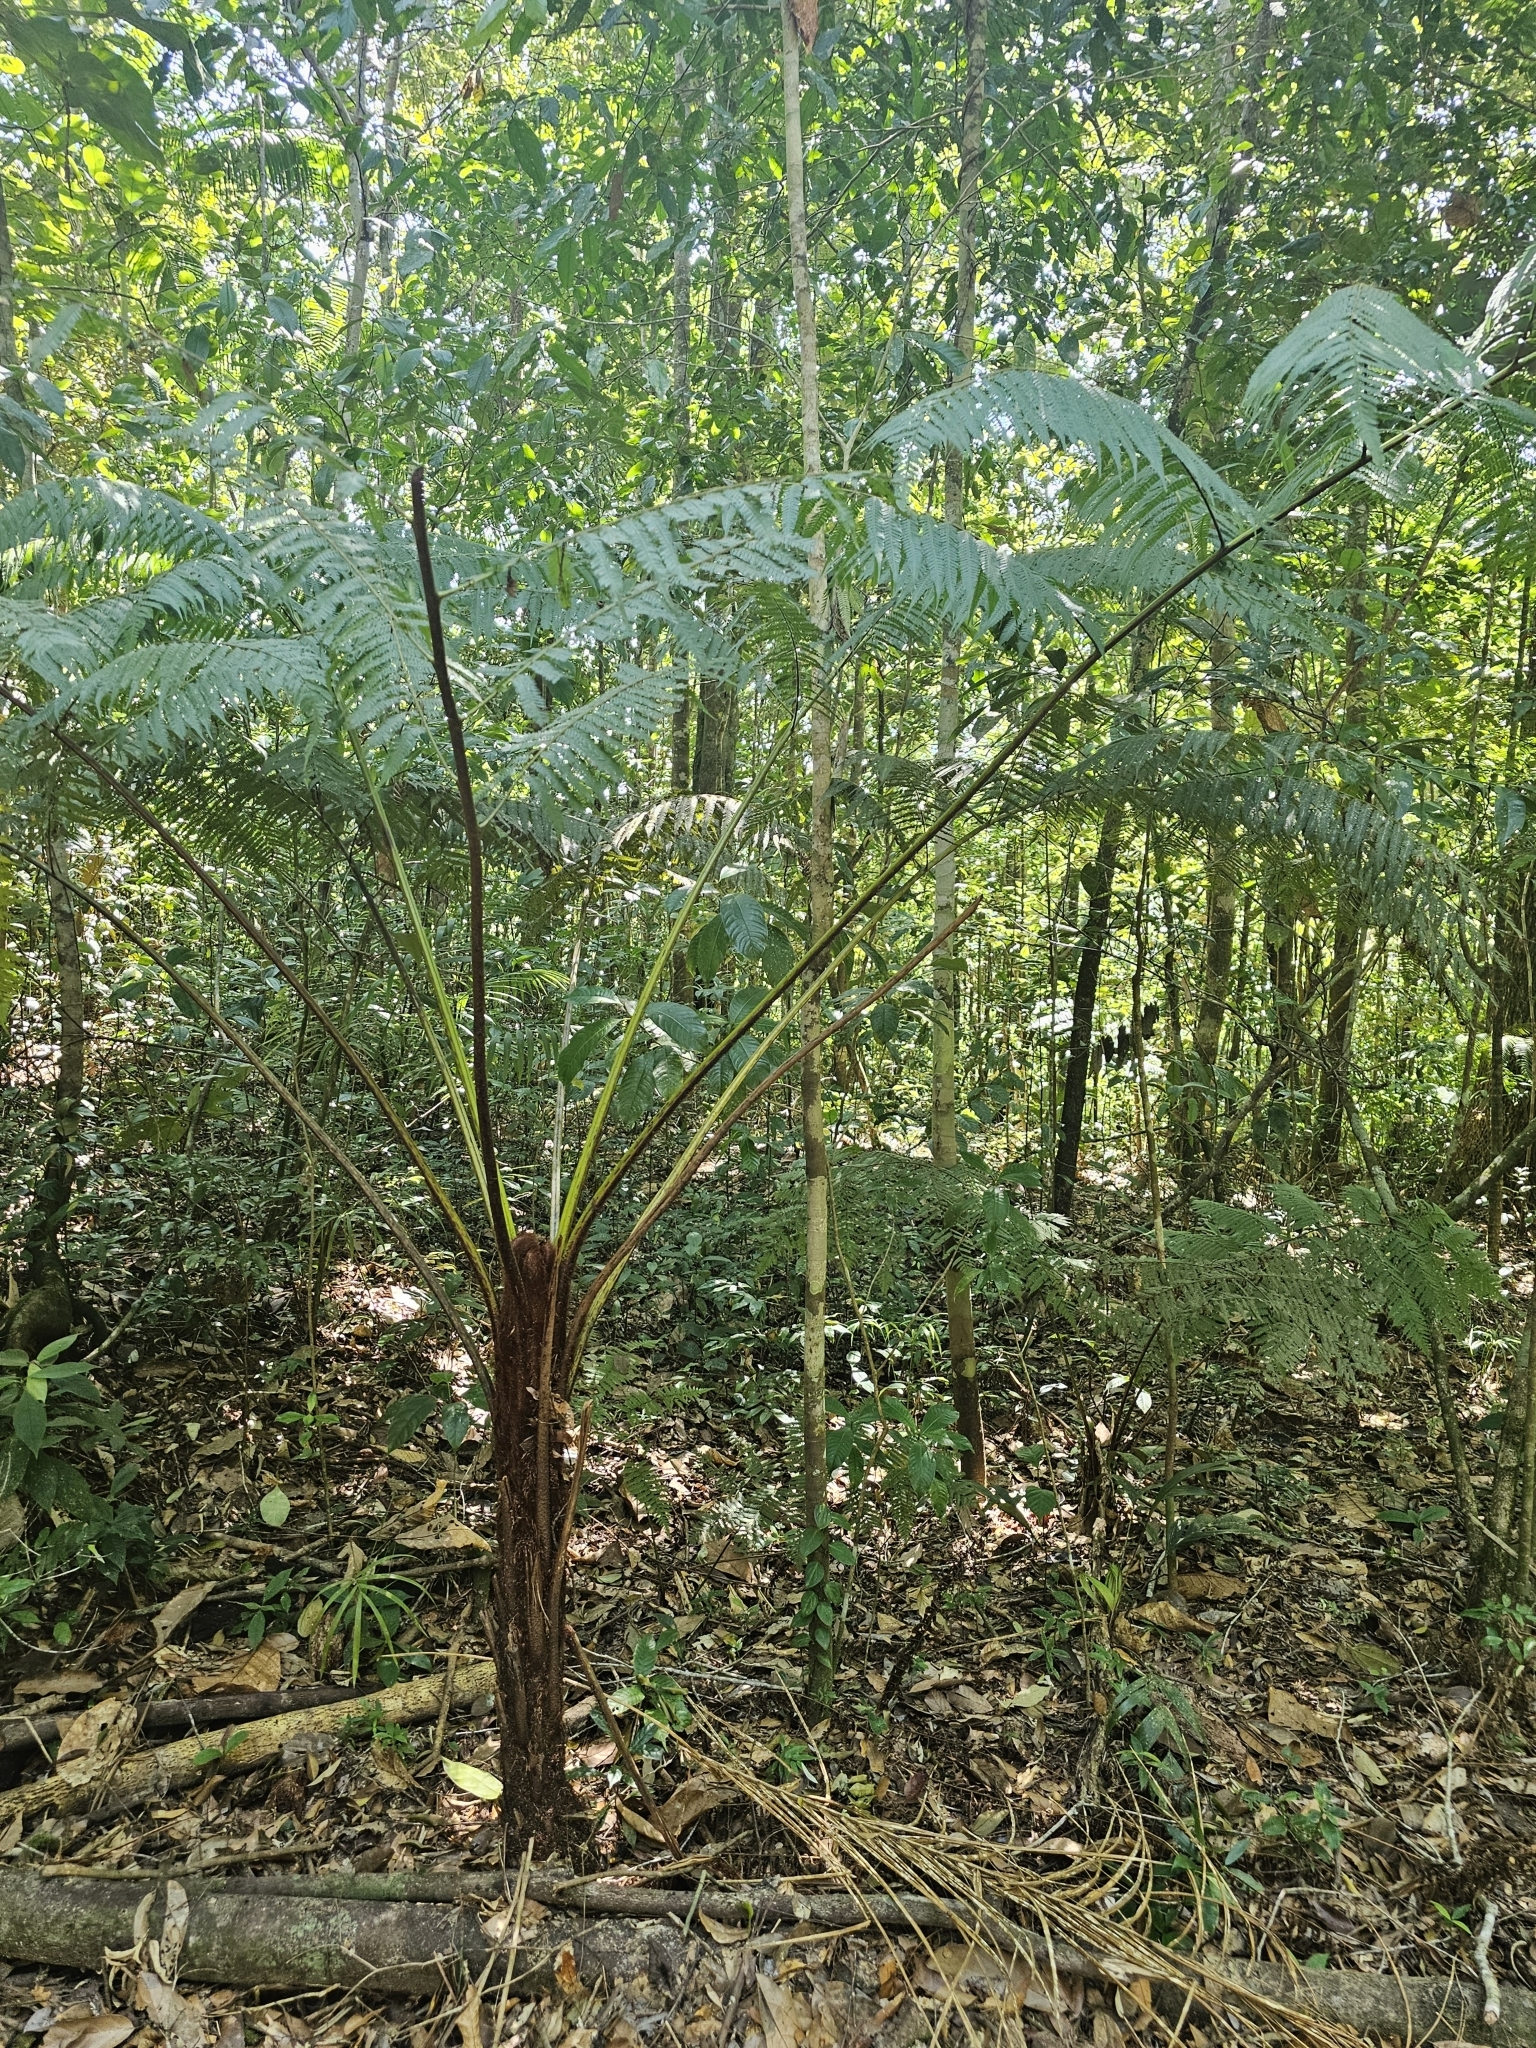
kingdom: Plantae
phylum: Tracheophyta
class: Polypodiopsida
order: Cyatheales
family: Cyatheaceae
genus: Sphaeropteris
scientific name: Sphaeropteris myosuroides
